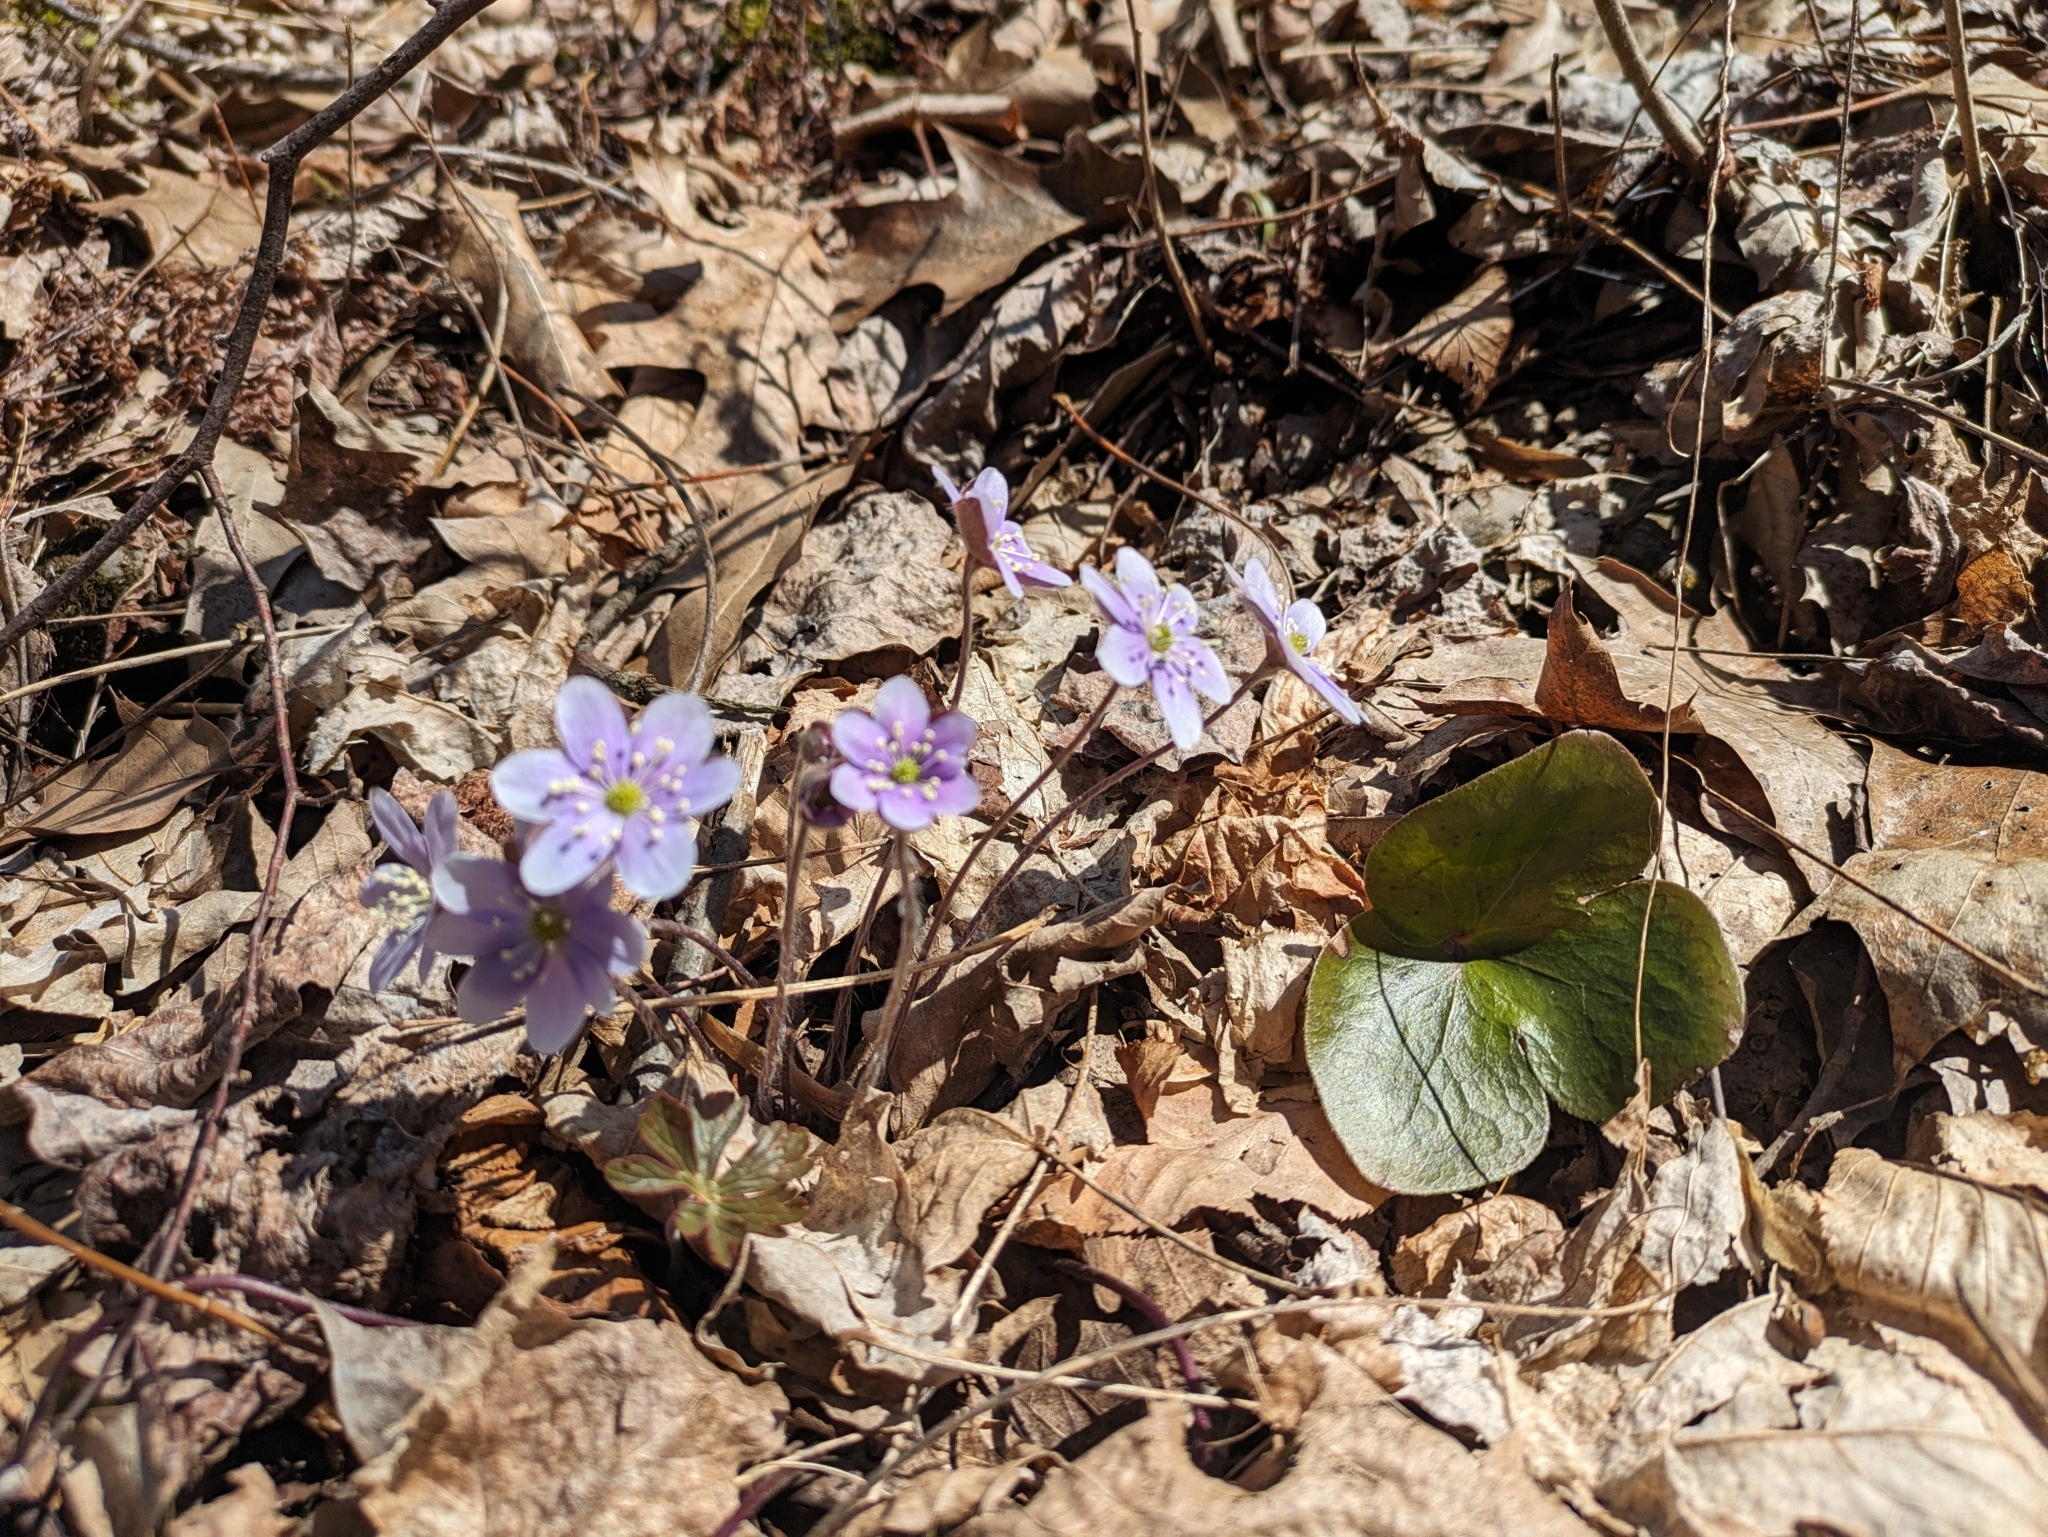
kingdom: Plantae
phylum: Tracheophyta
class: Magnoliopsida
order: Ranunculales
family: Ranunculaceae
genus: Hepatica
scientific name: Hepatica americana
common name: American hepatica
